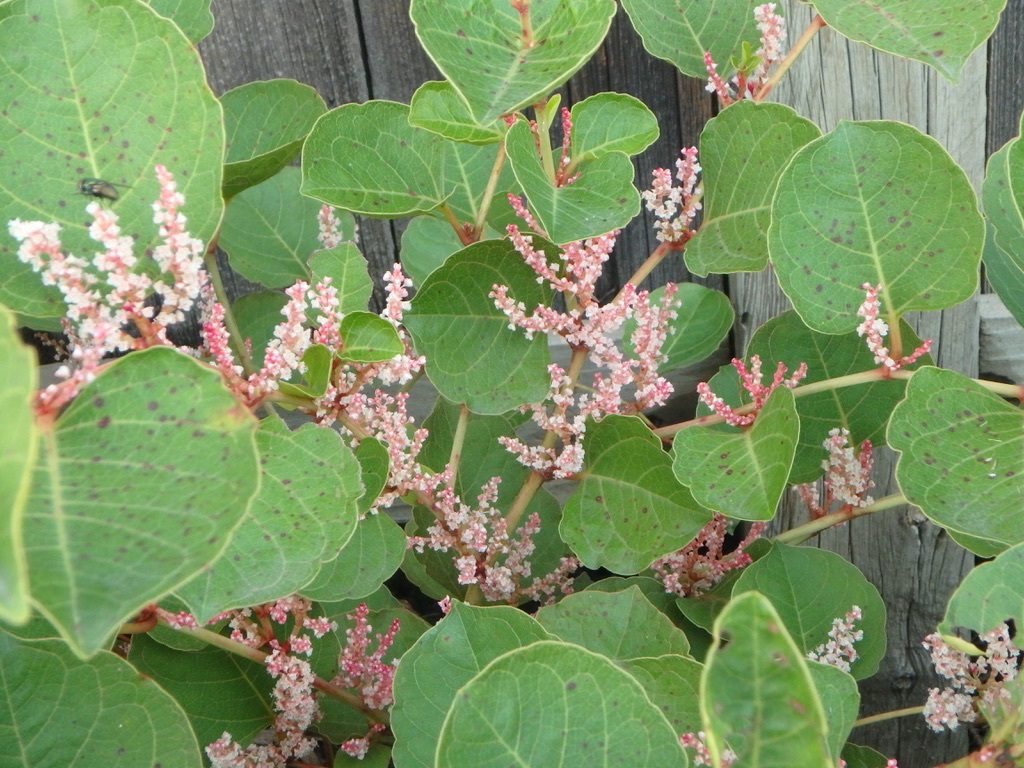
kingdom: Plantae
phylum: Tracheophyta
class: Magnoliopsida
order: Caryophyllales
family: Polygonaceae
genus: Reynoutria
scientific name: Reynoutria japonica
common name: Japanese knotweed
